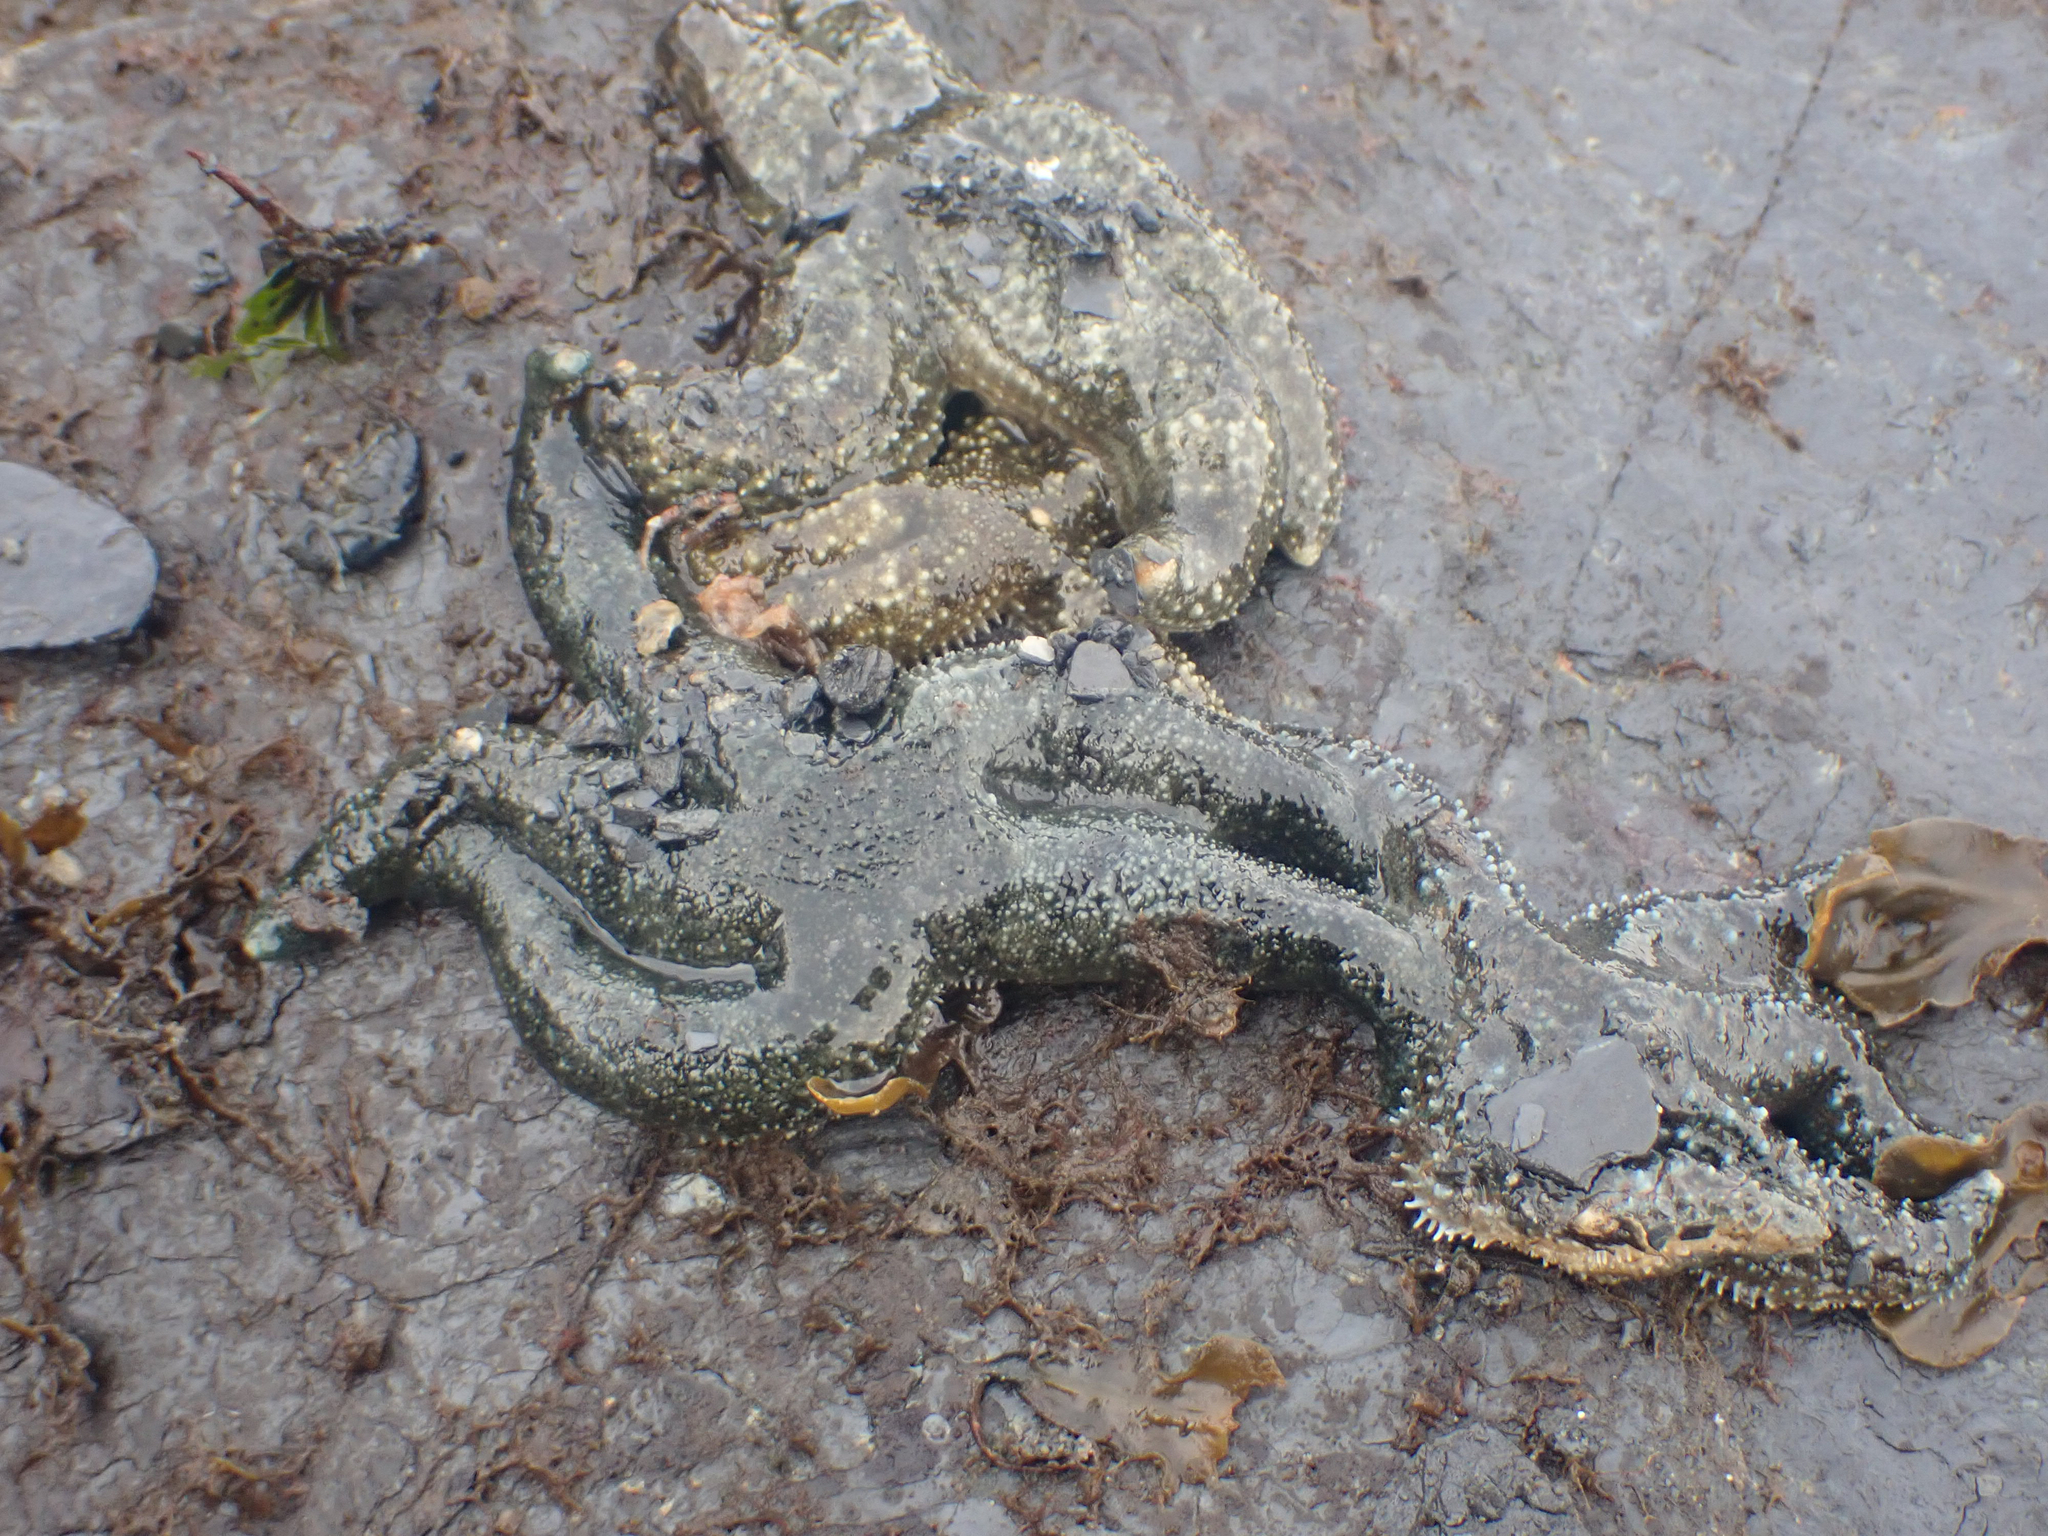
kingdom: Animalia
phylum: Echinodermata
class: Asteroidea
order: Forcipulatida
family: Asteriidae
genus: Evasterias
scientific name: Evasterias troschelii
